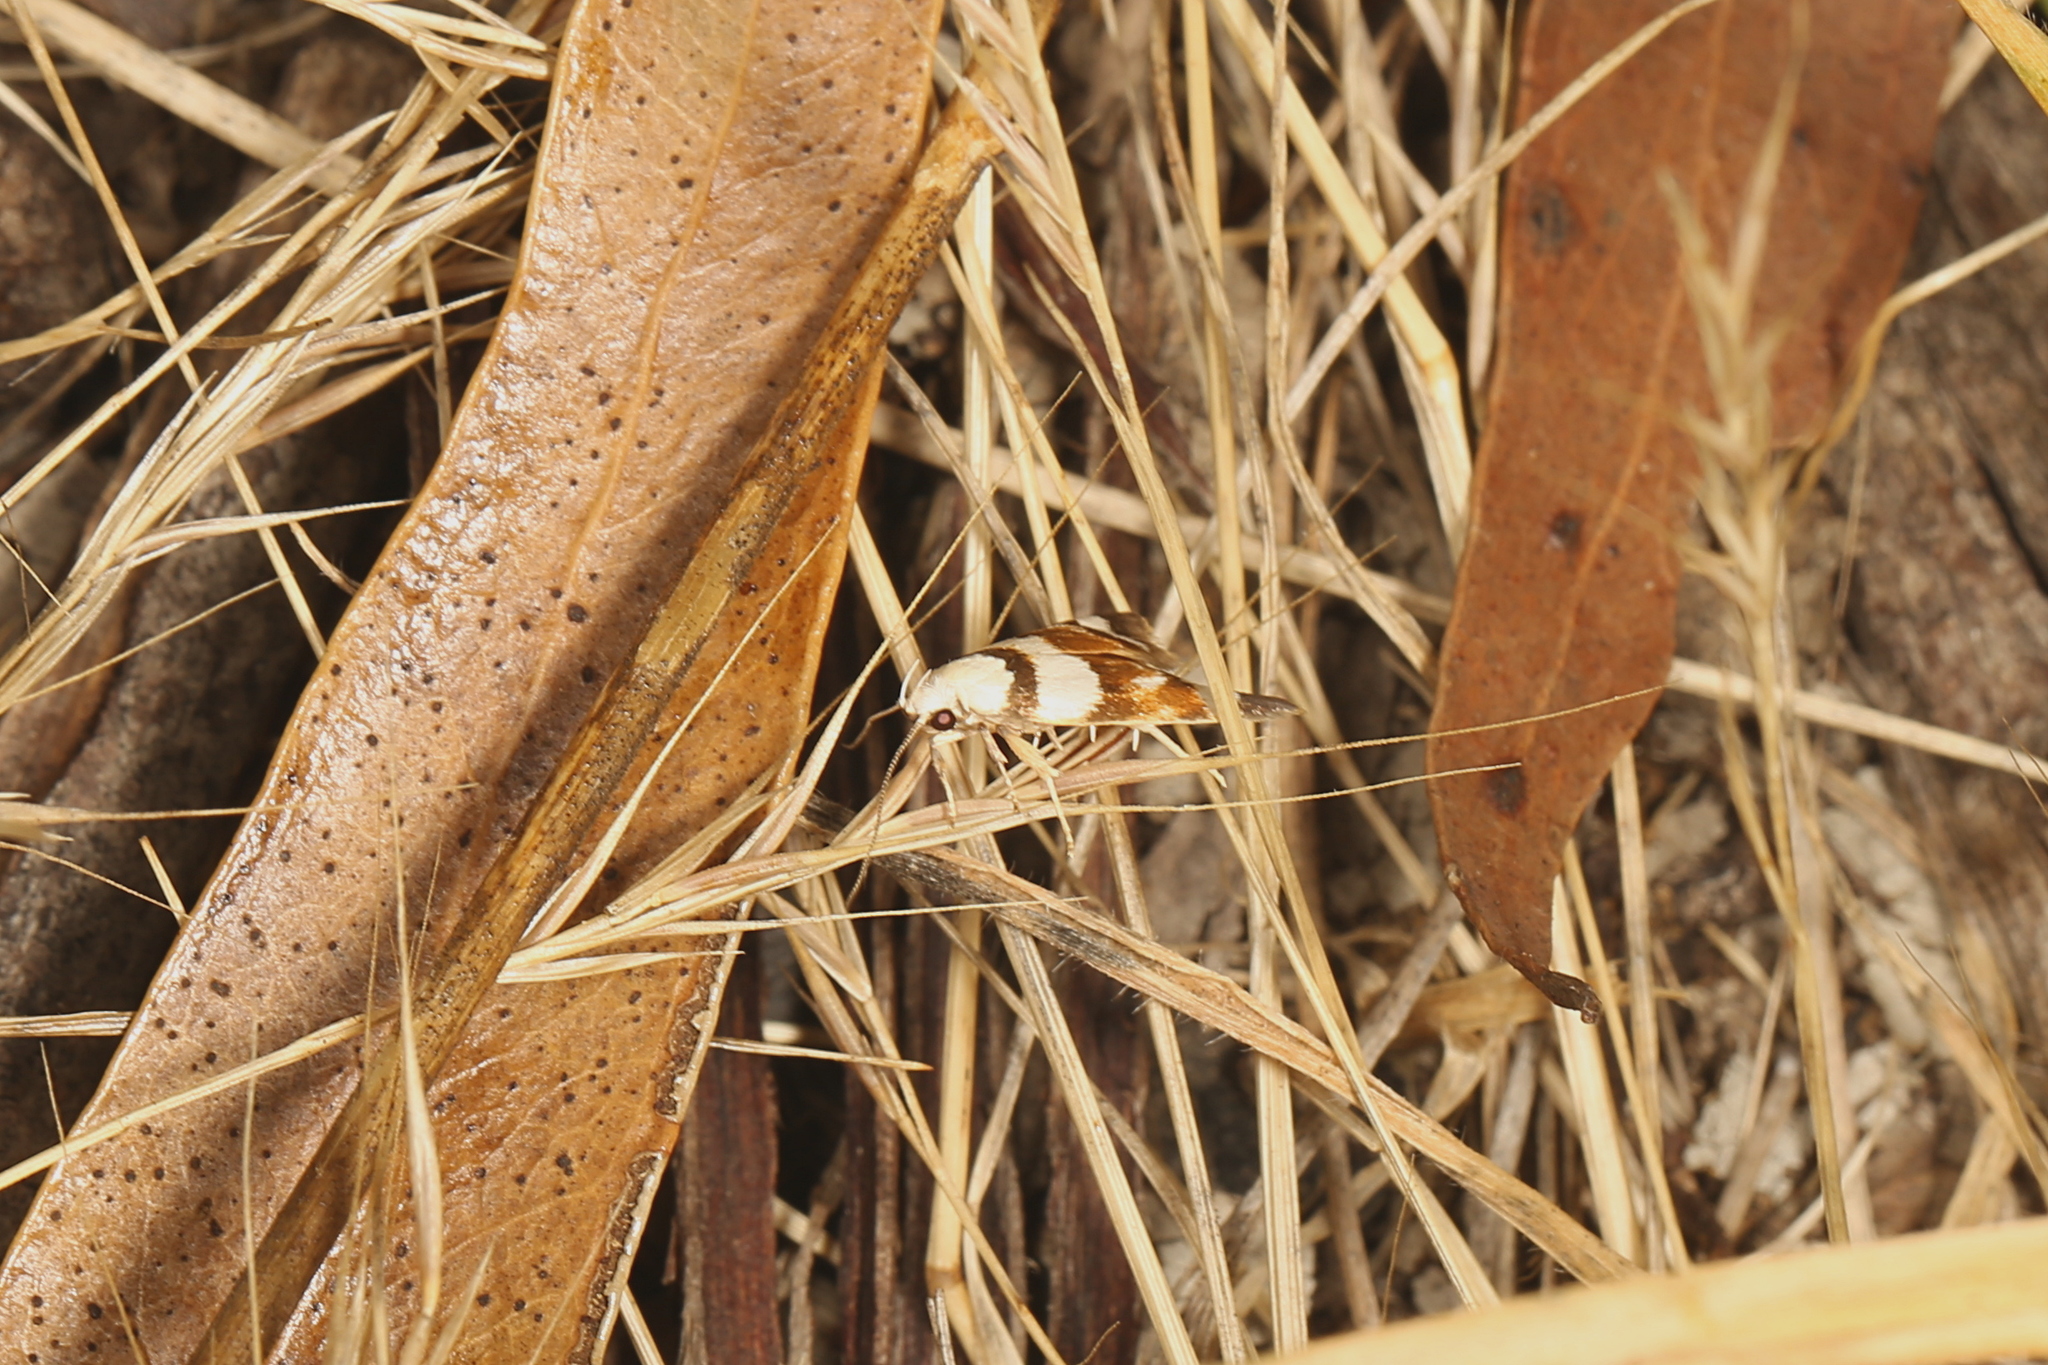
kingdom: Animalia
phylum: Arthropoda
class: Insecta
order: Lepidoptera
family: Oecophoridae
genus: Catacometes
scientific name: Catacometes phanozona
